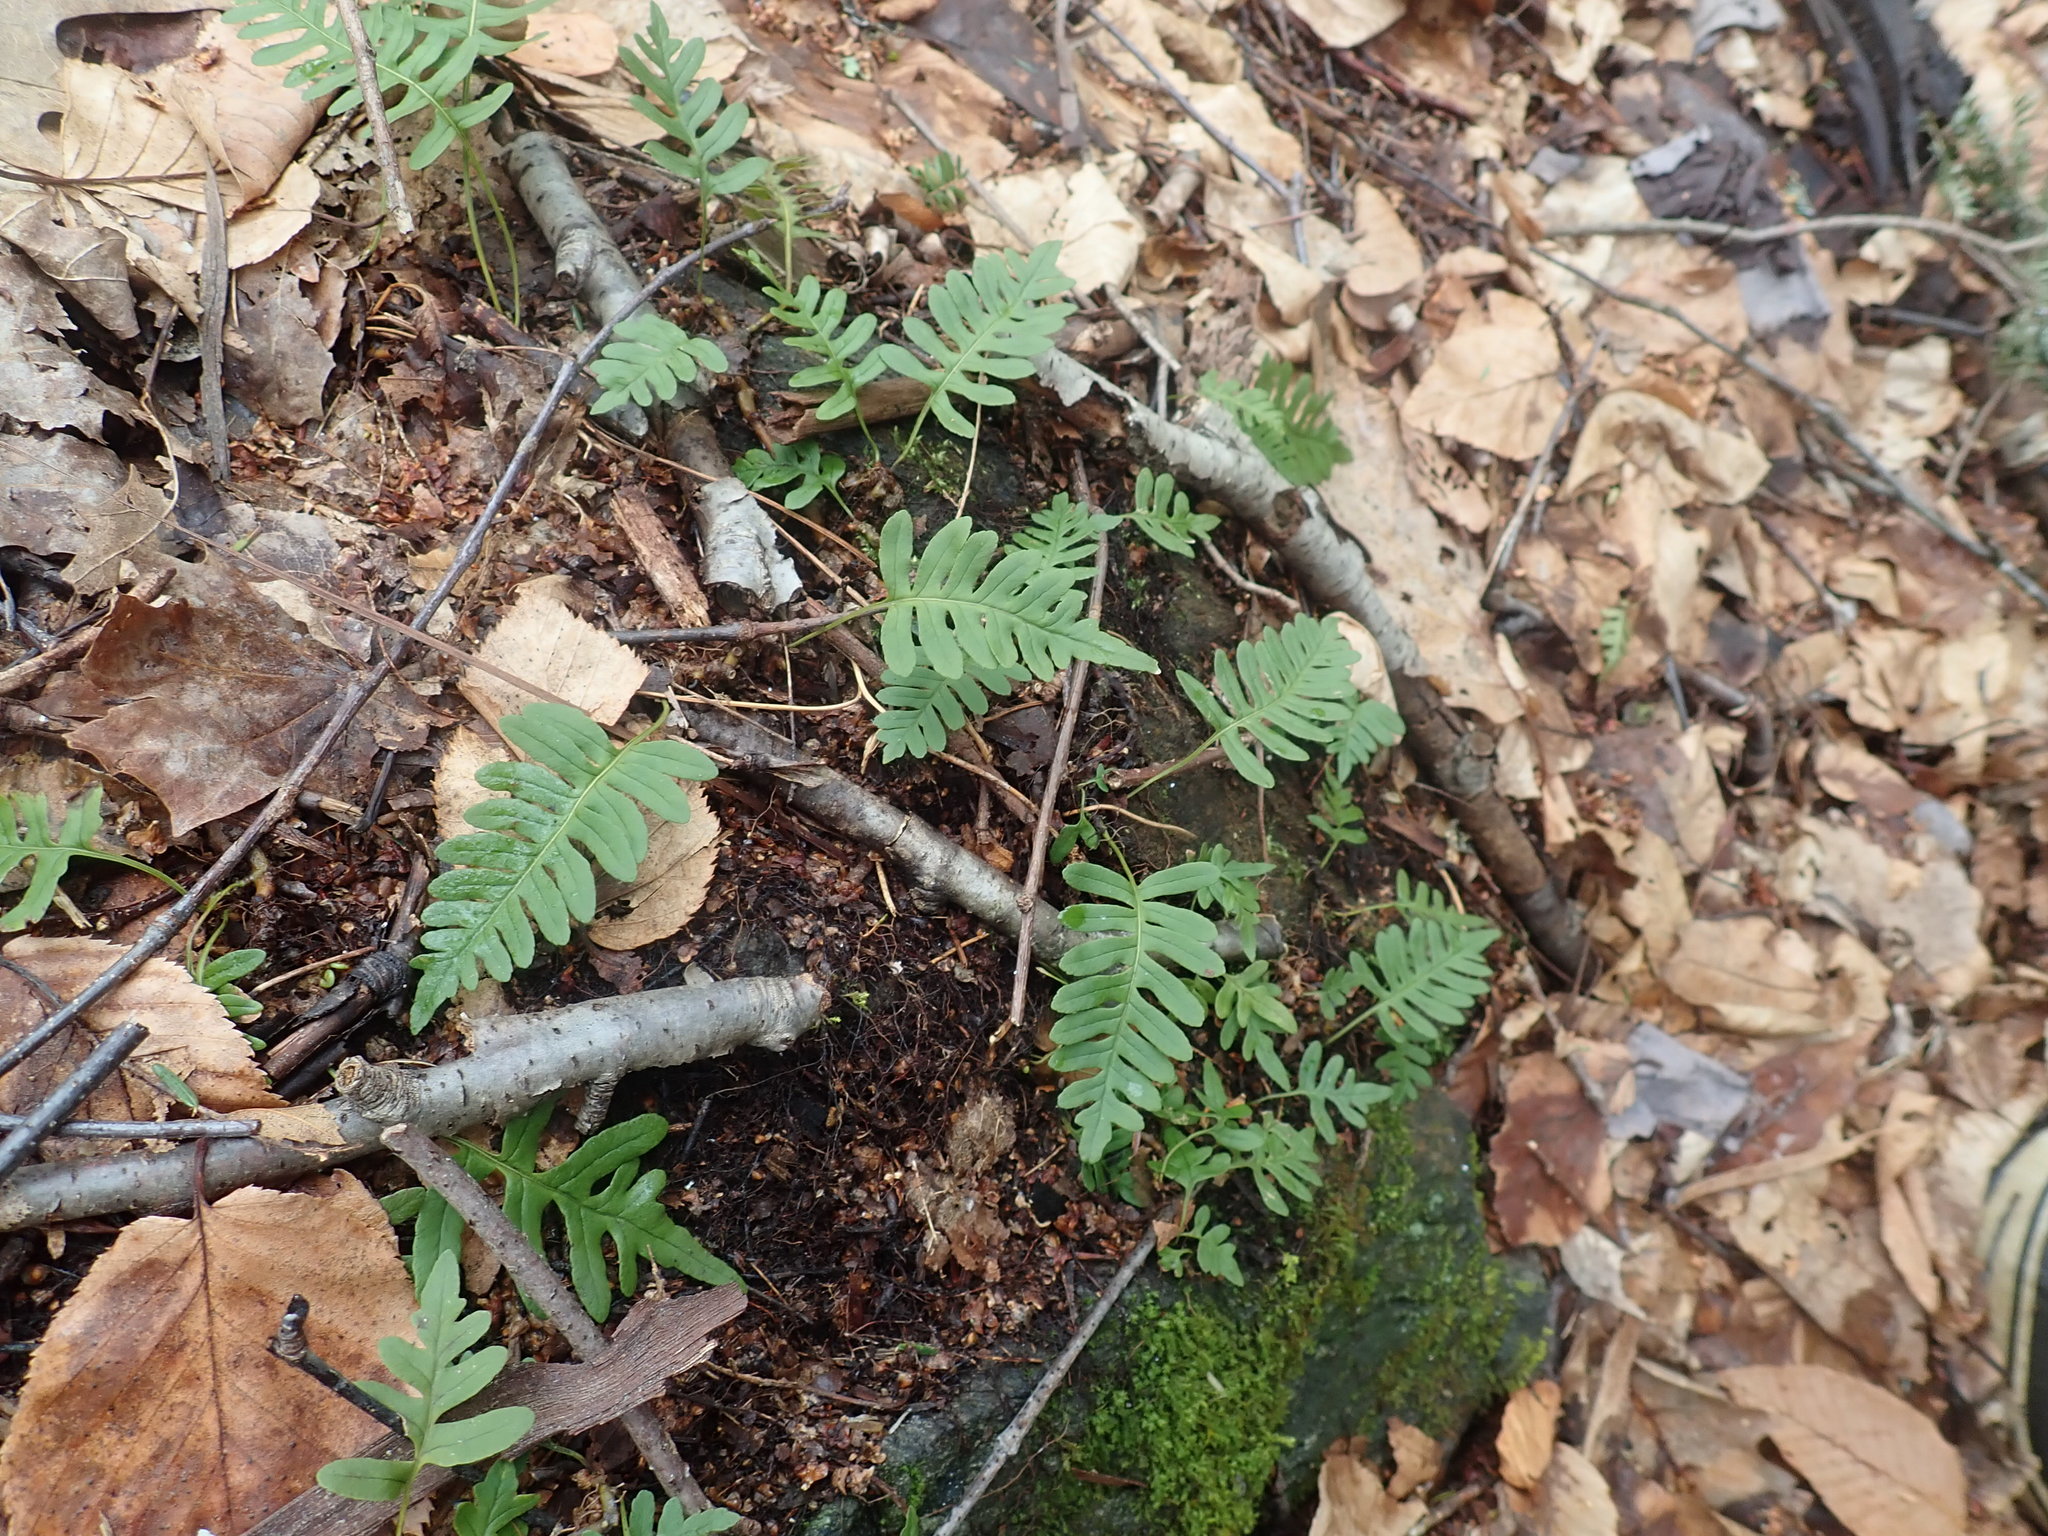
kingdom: Plantae
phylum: Tracheophyta
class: Polypodiopsida
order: Polypodiales
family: Polypodiaceae
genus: Polypodium
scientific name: Polypodium
